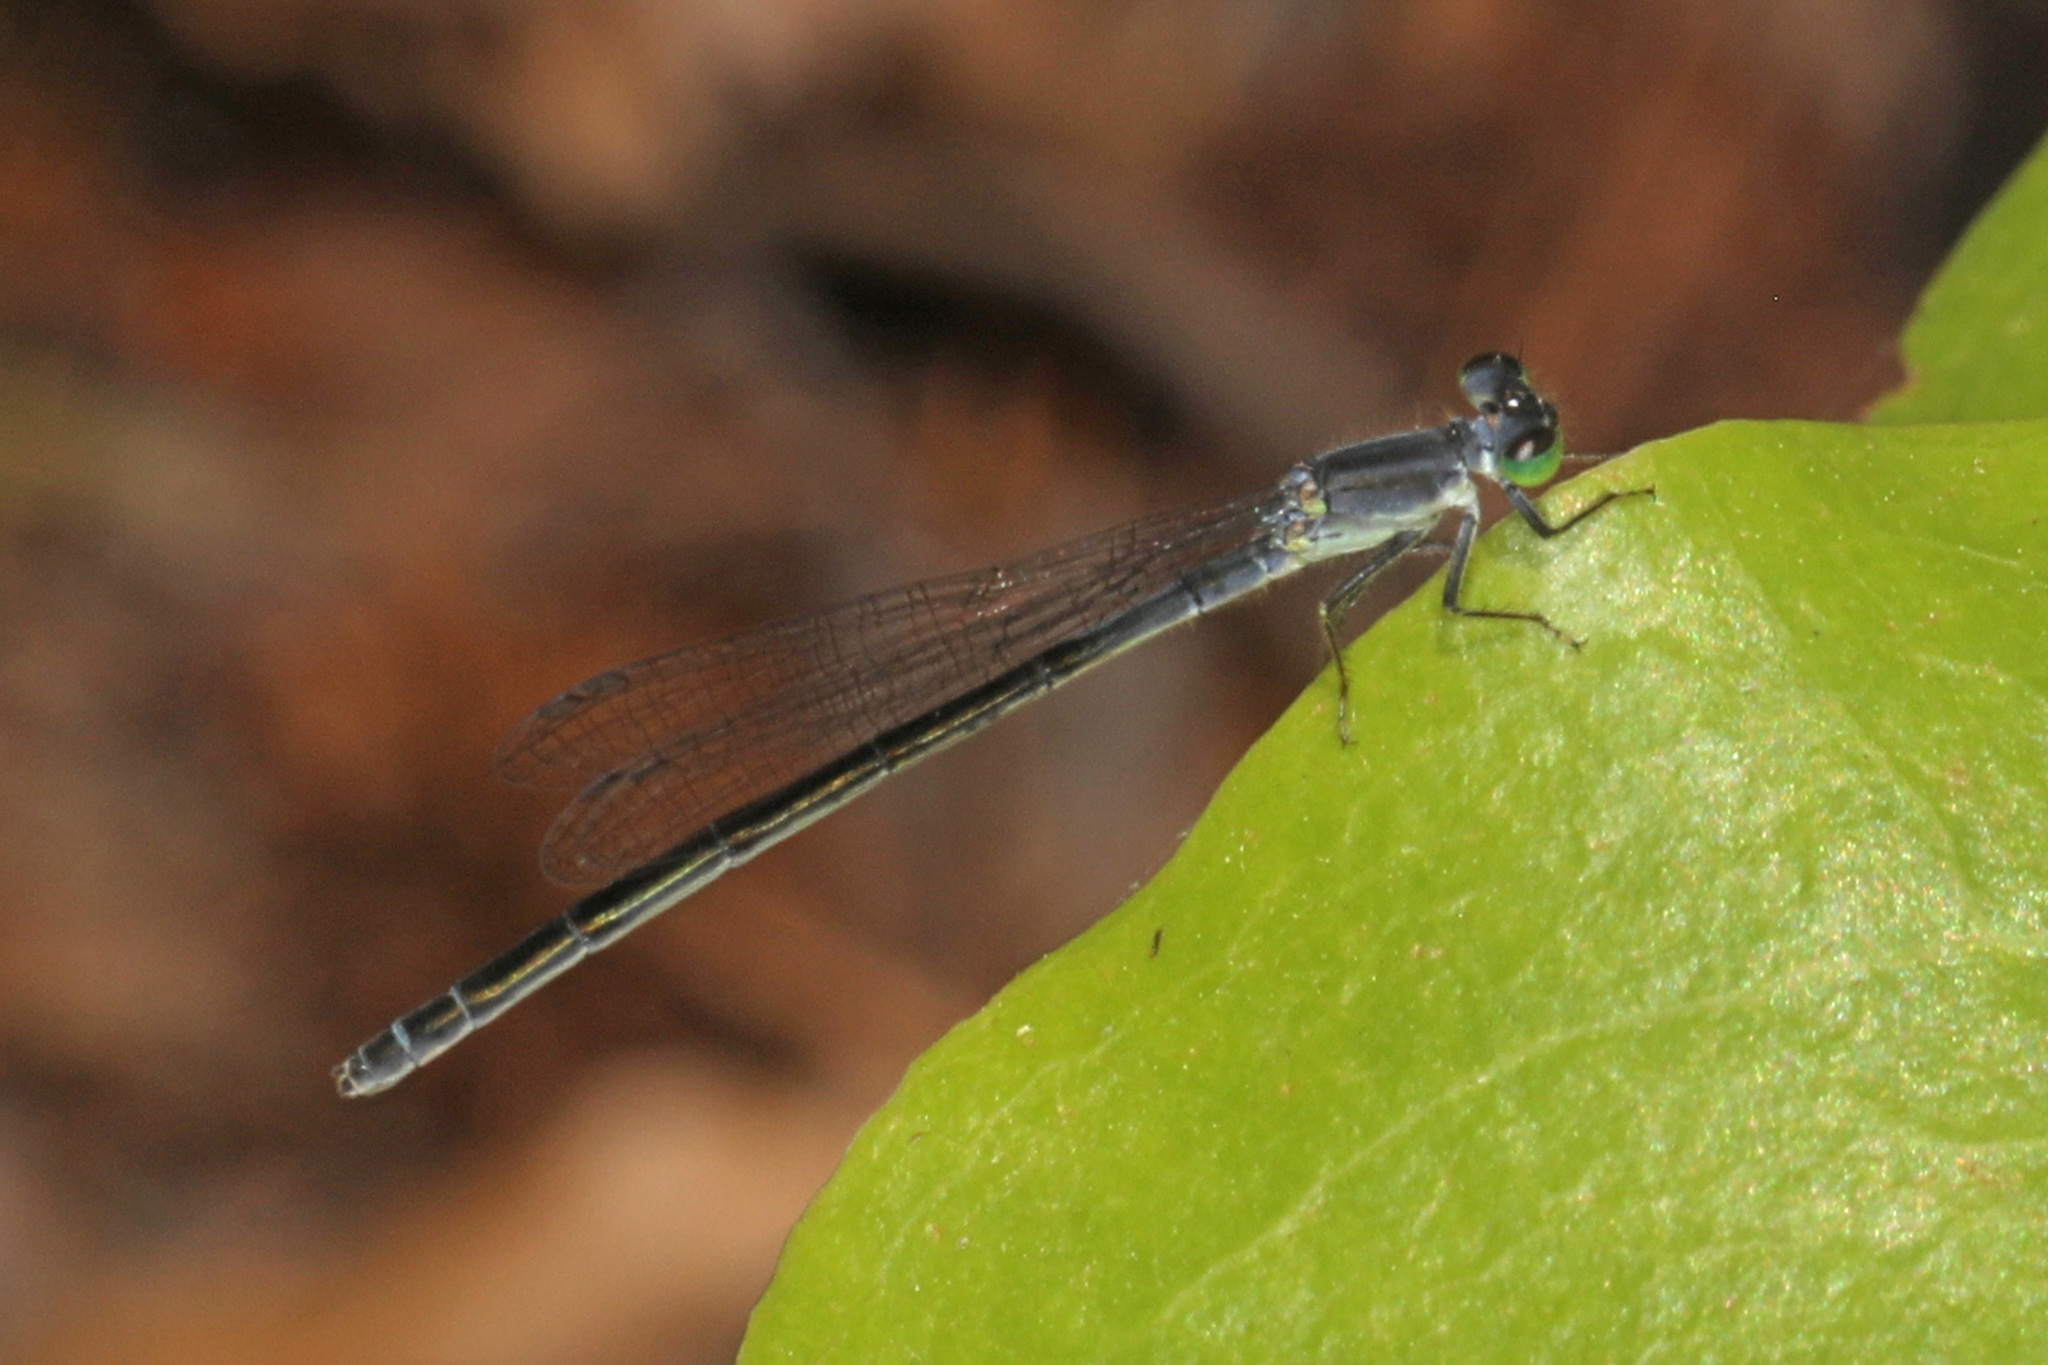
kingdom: Animalia
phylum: Arthropoda
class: Insecta
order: Odonata
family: Coenagrionidae
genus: Ischnura
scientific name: Ischnura verticalis
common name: Eastern forktail
